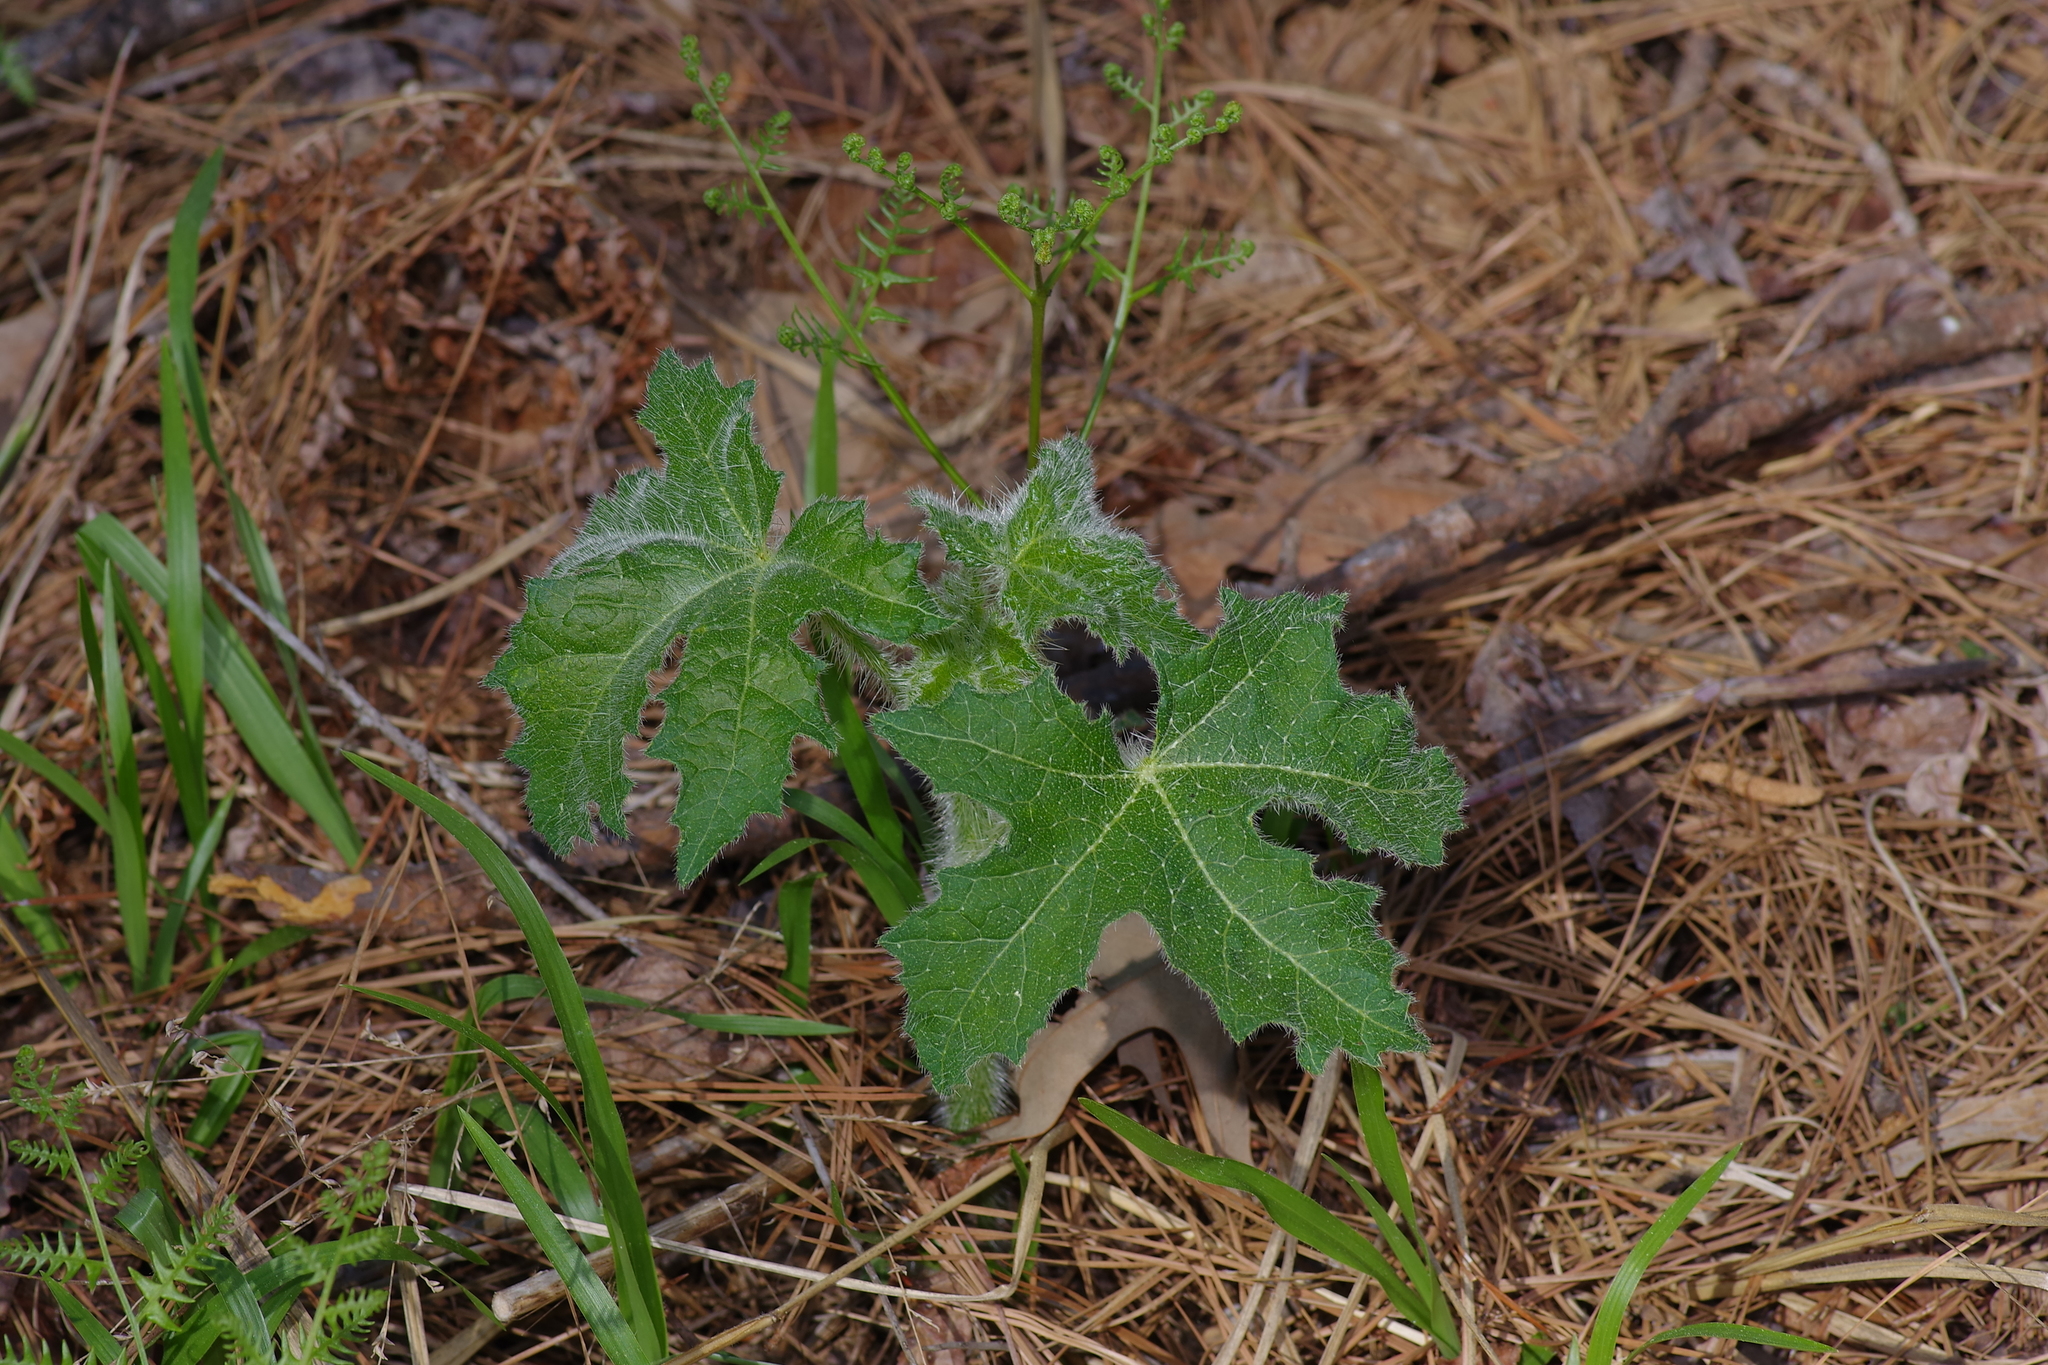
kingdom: Plantae
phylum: Tracheophyta
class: Magnoliopsida
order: Malpighiales
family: Euphorbiaceae
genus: Cnidoscolus
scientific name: Cnidoscolus texanus
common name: Texas bull-nettle
